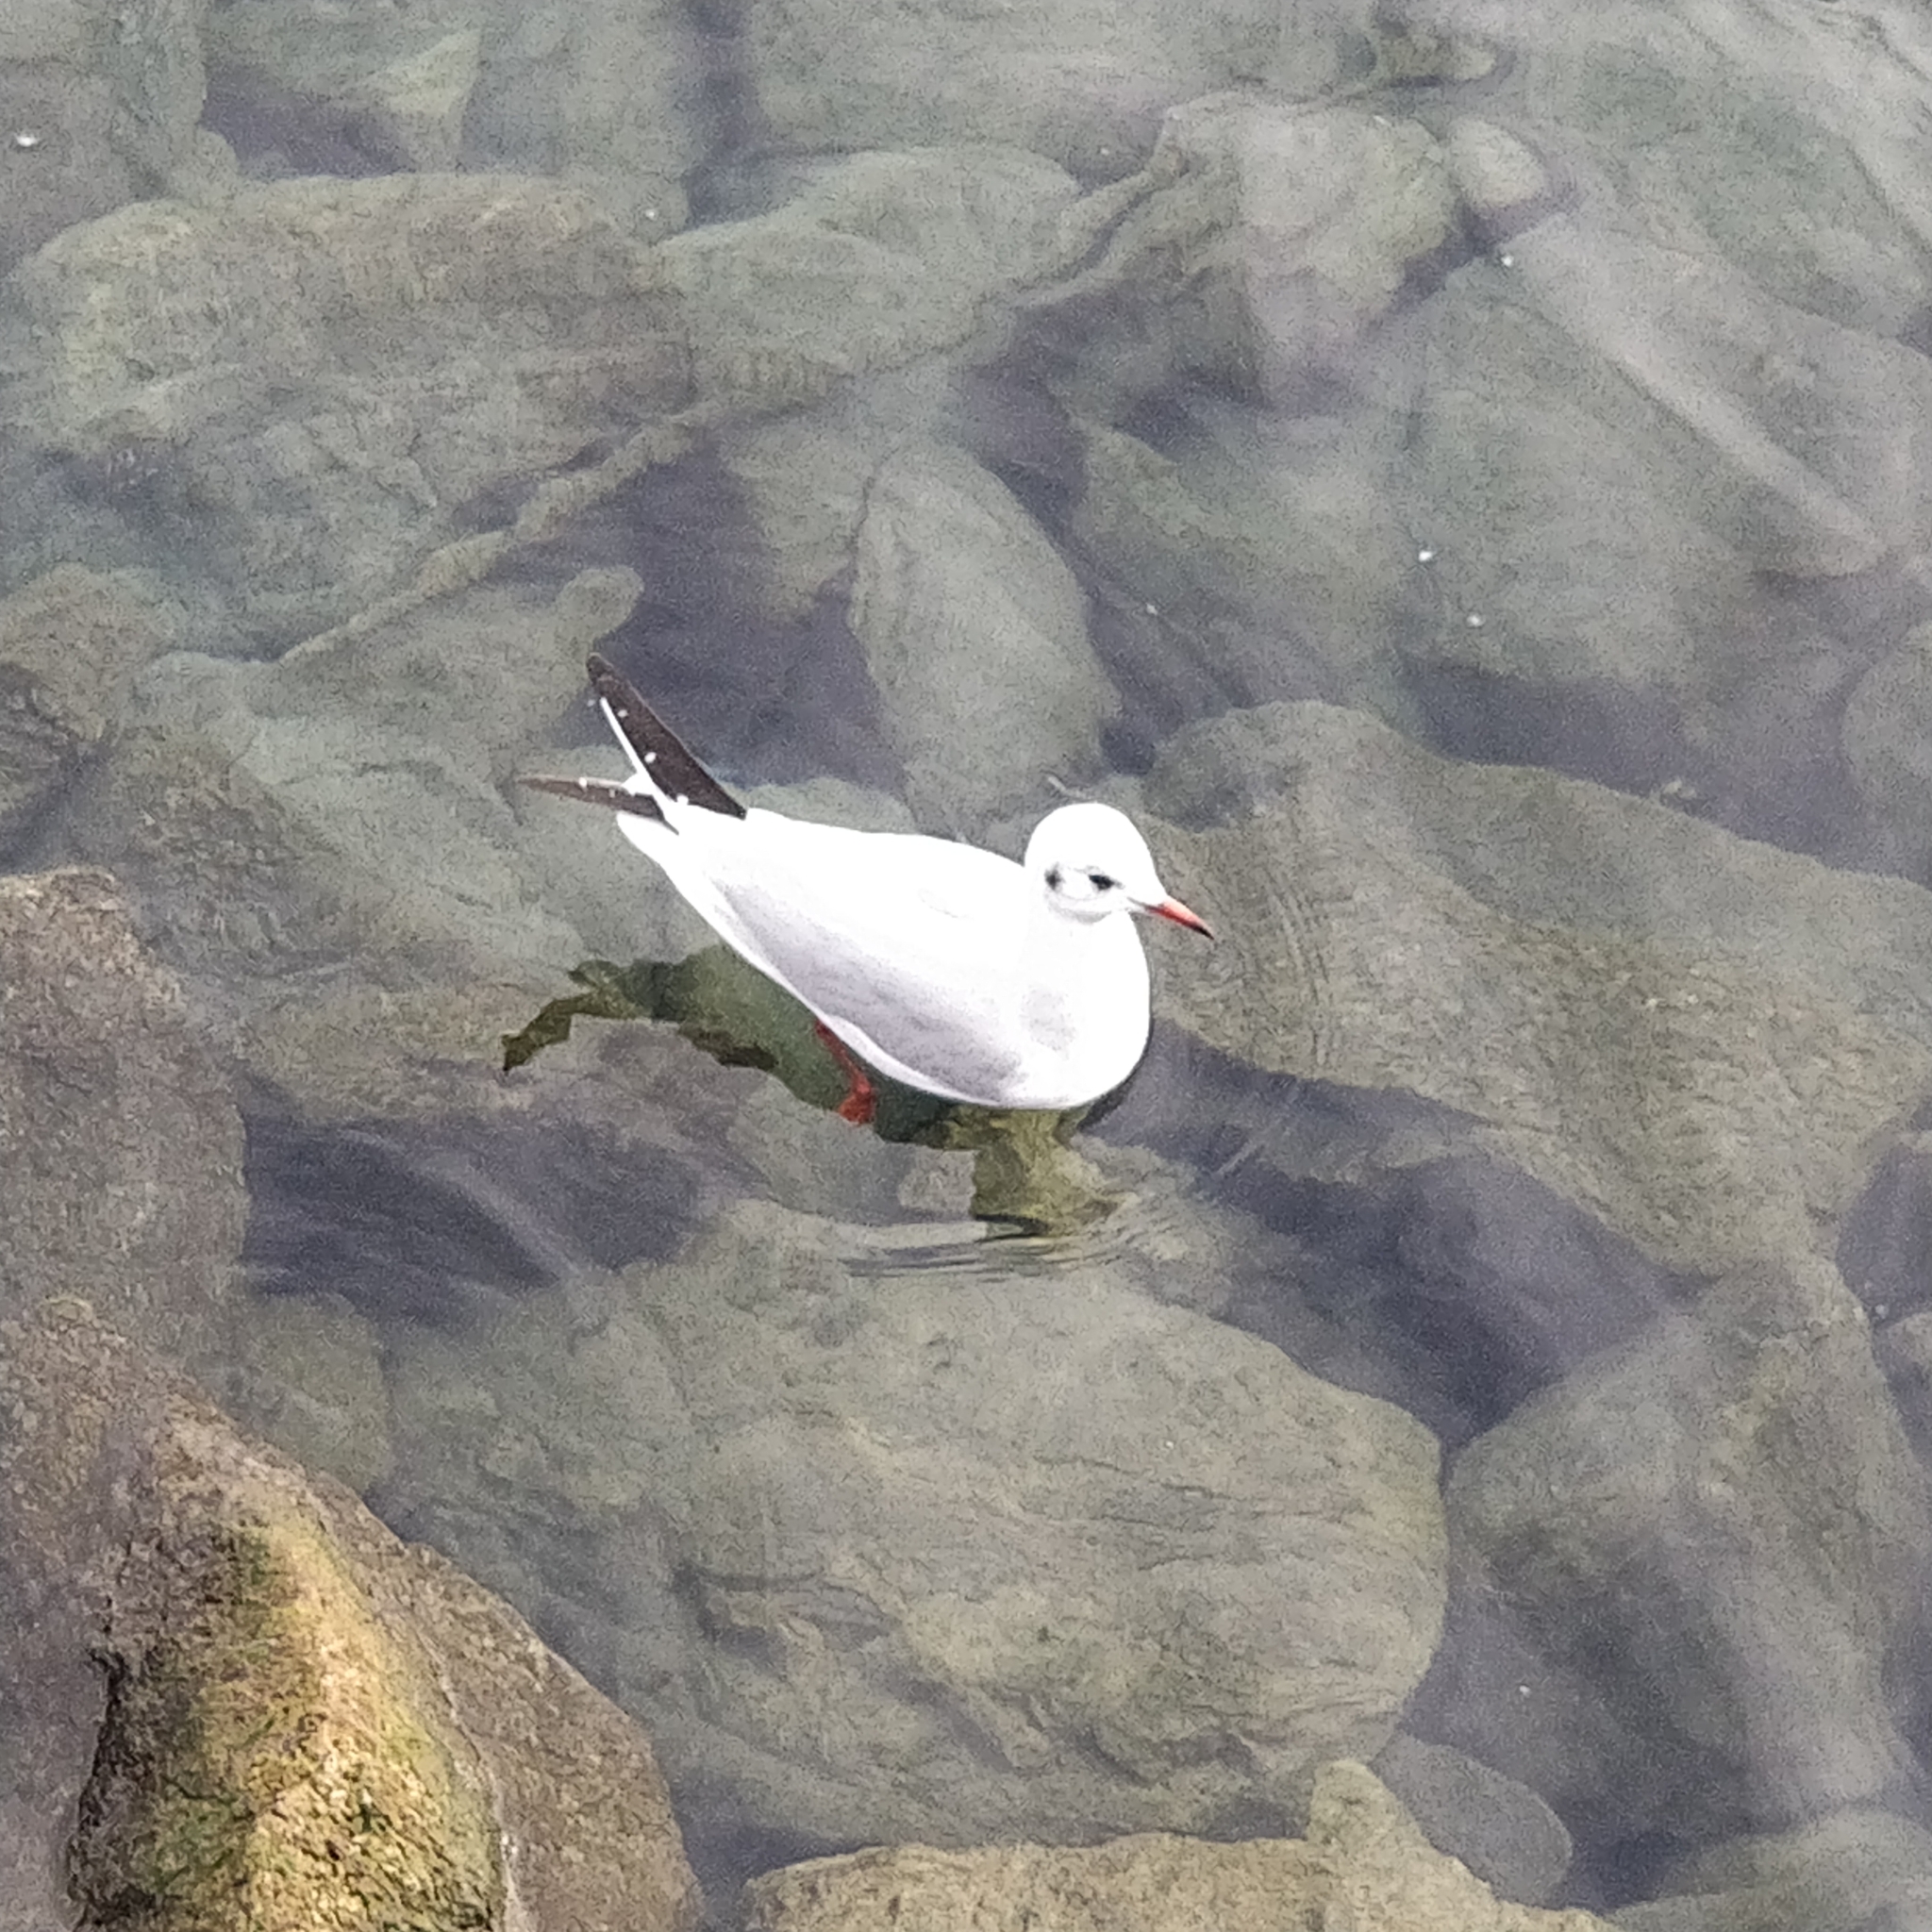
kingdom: Animalia
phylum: Chordata
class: Aves
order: Charadriiformes
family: Laridae
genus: Chroicocephalus
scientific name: Chroicocephalus ridibundus
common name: Black-headed gull
